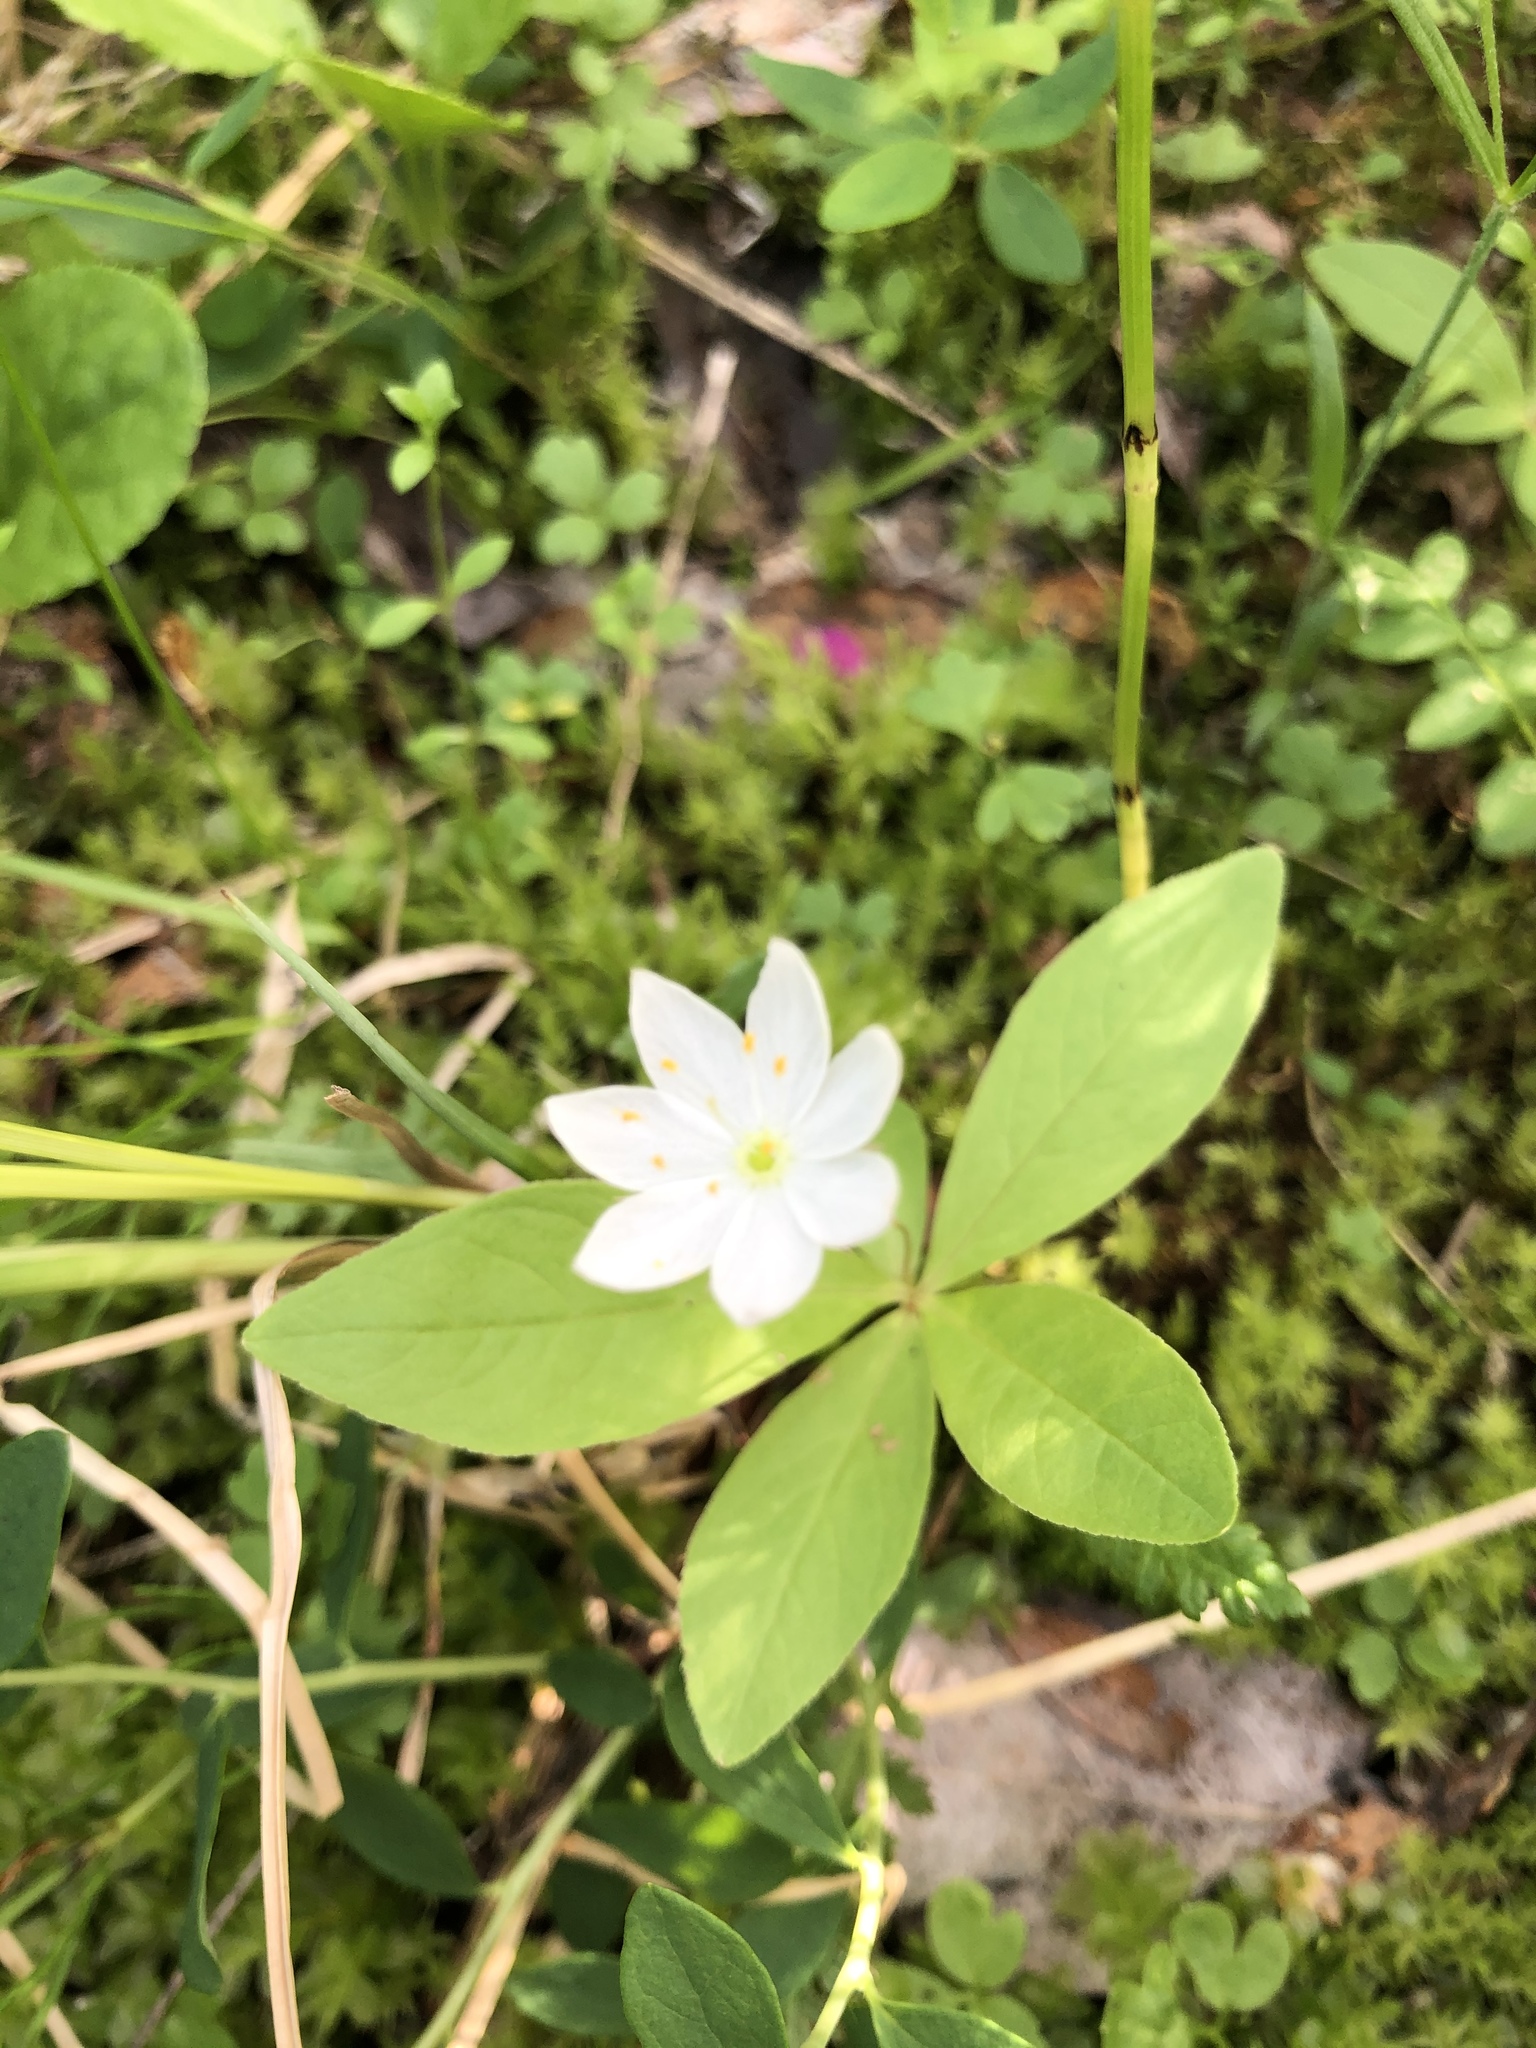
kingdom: Plantae
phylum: Tracheophyta
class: Magnoliopsida
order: Ericales
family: Primulaceae
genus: Lysimachia
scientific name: Lysimachia europaea
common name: Arctic starflower
